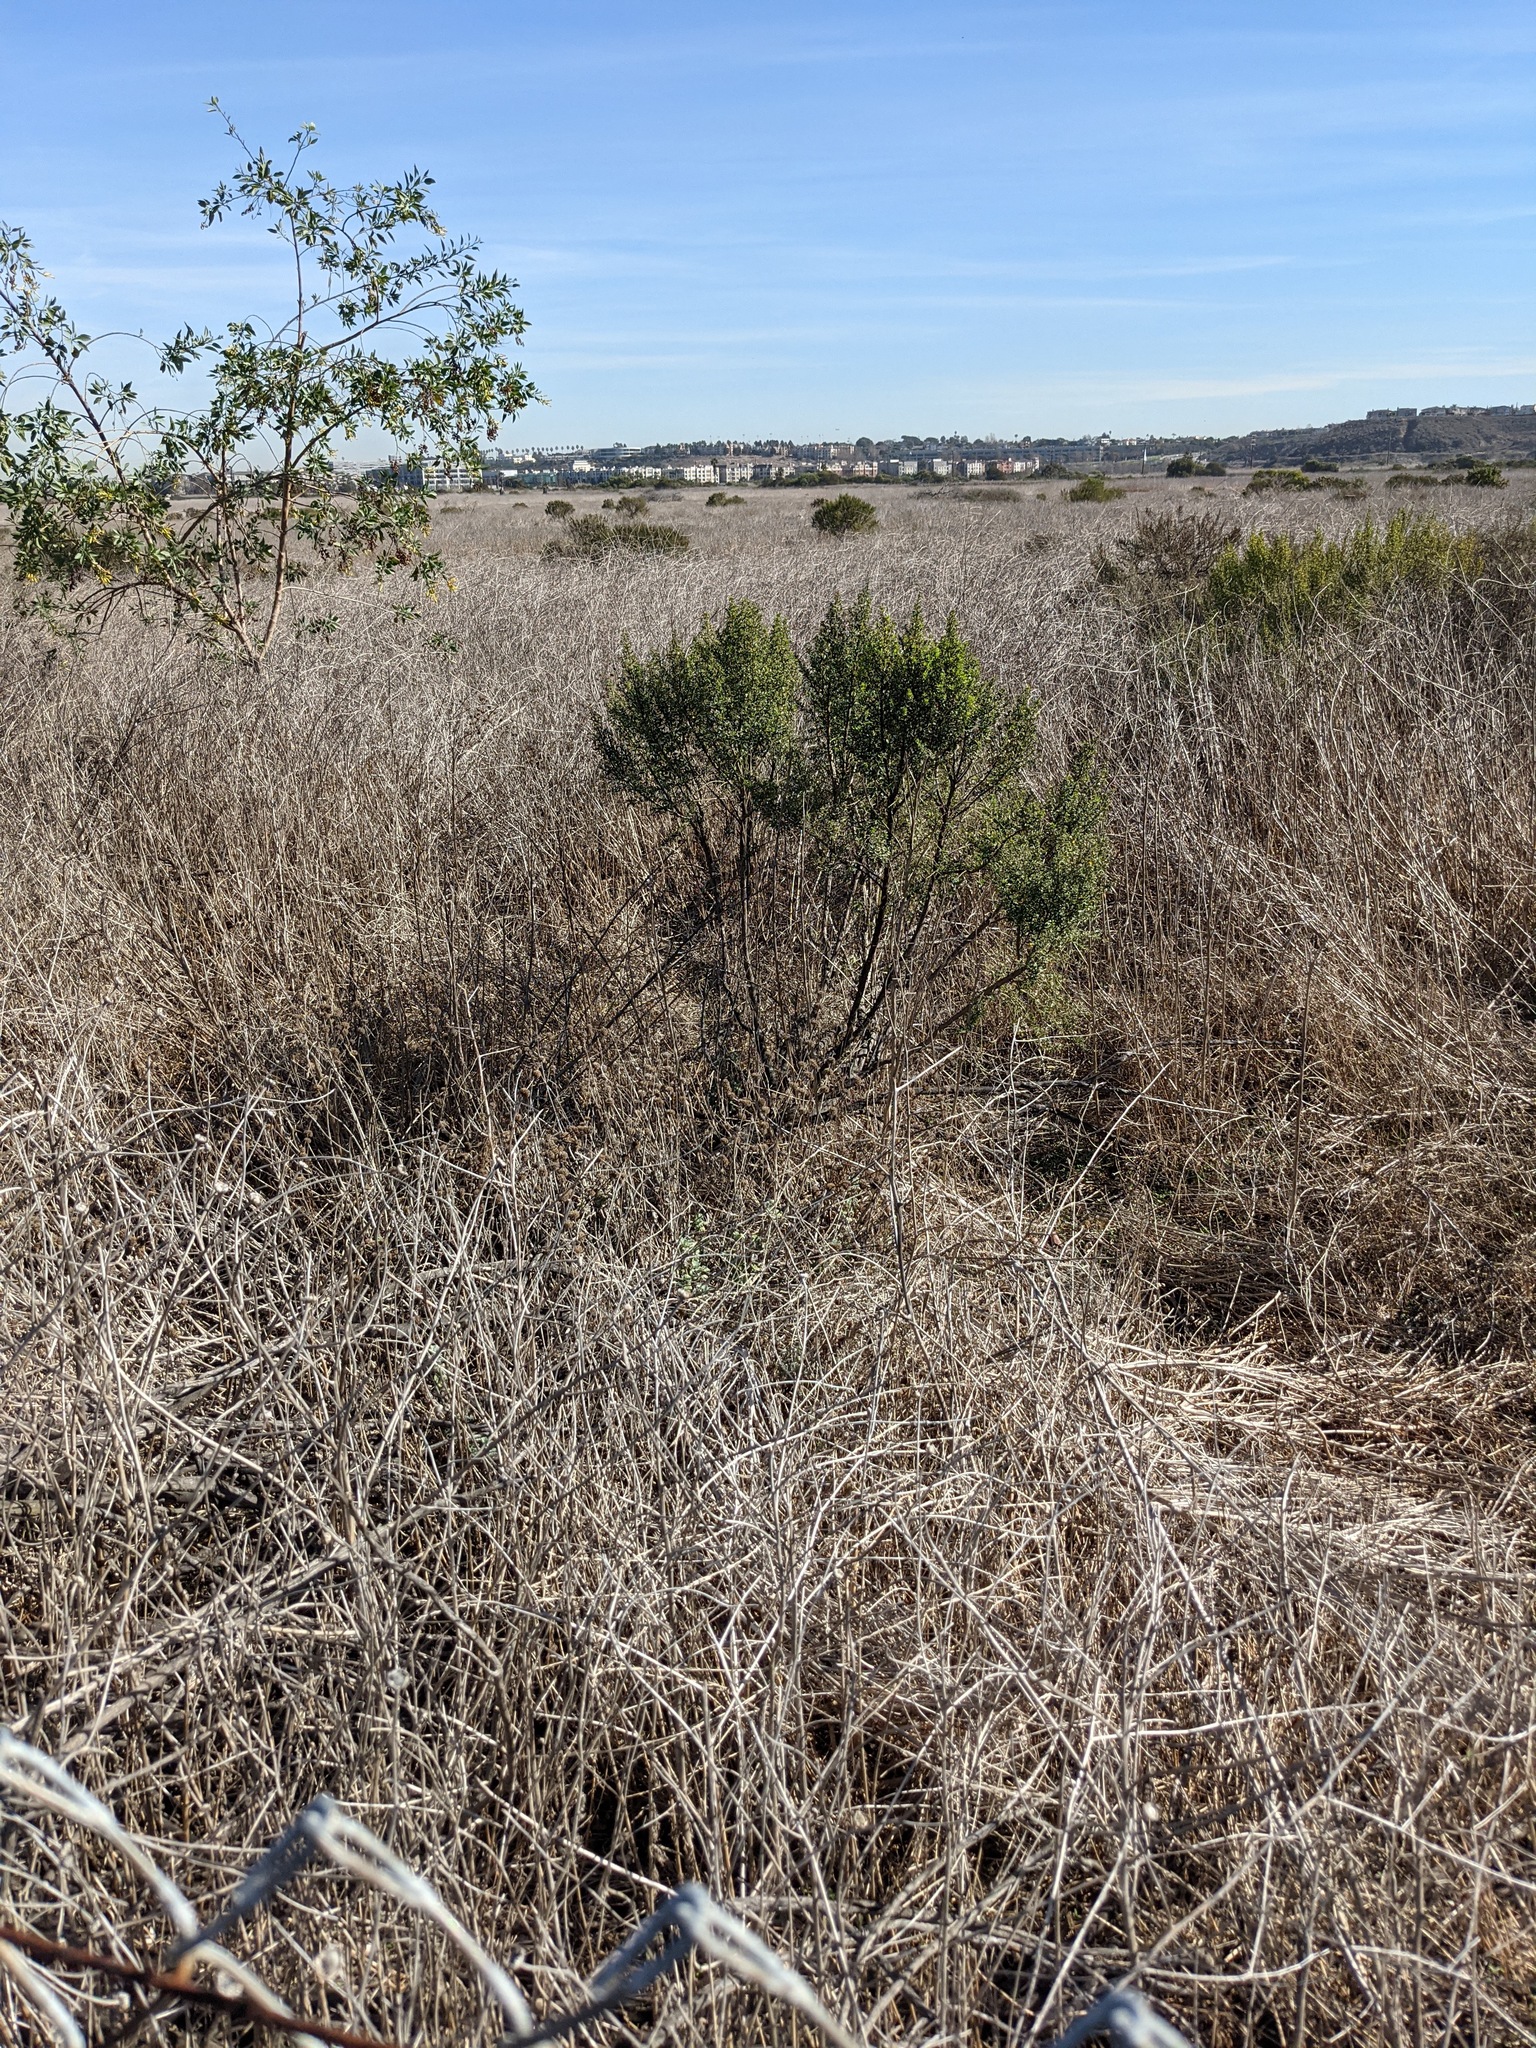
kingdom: Plantae
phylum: Tracheophyta
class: Magnoliopsida
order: Asterales
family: Asteraceae
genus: Baccharis
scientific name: Baccharis pilularis
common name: Coyotebrush
